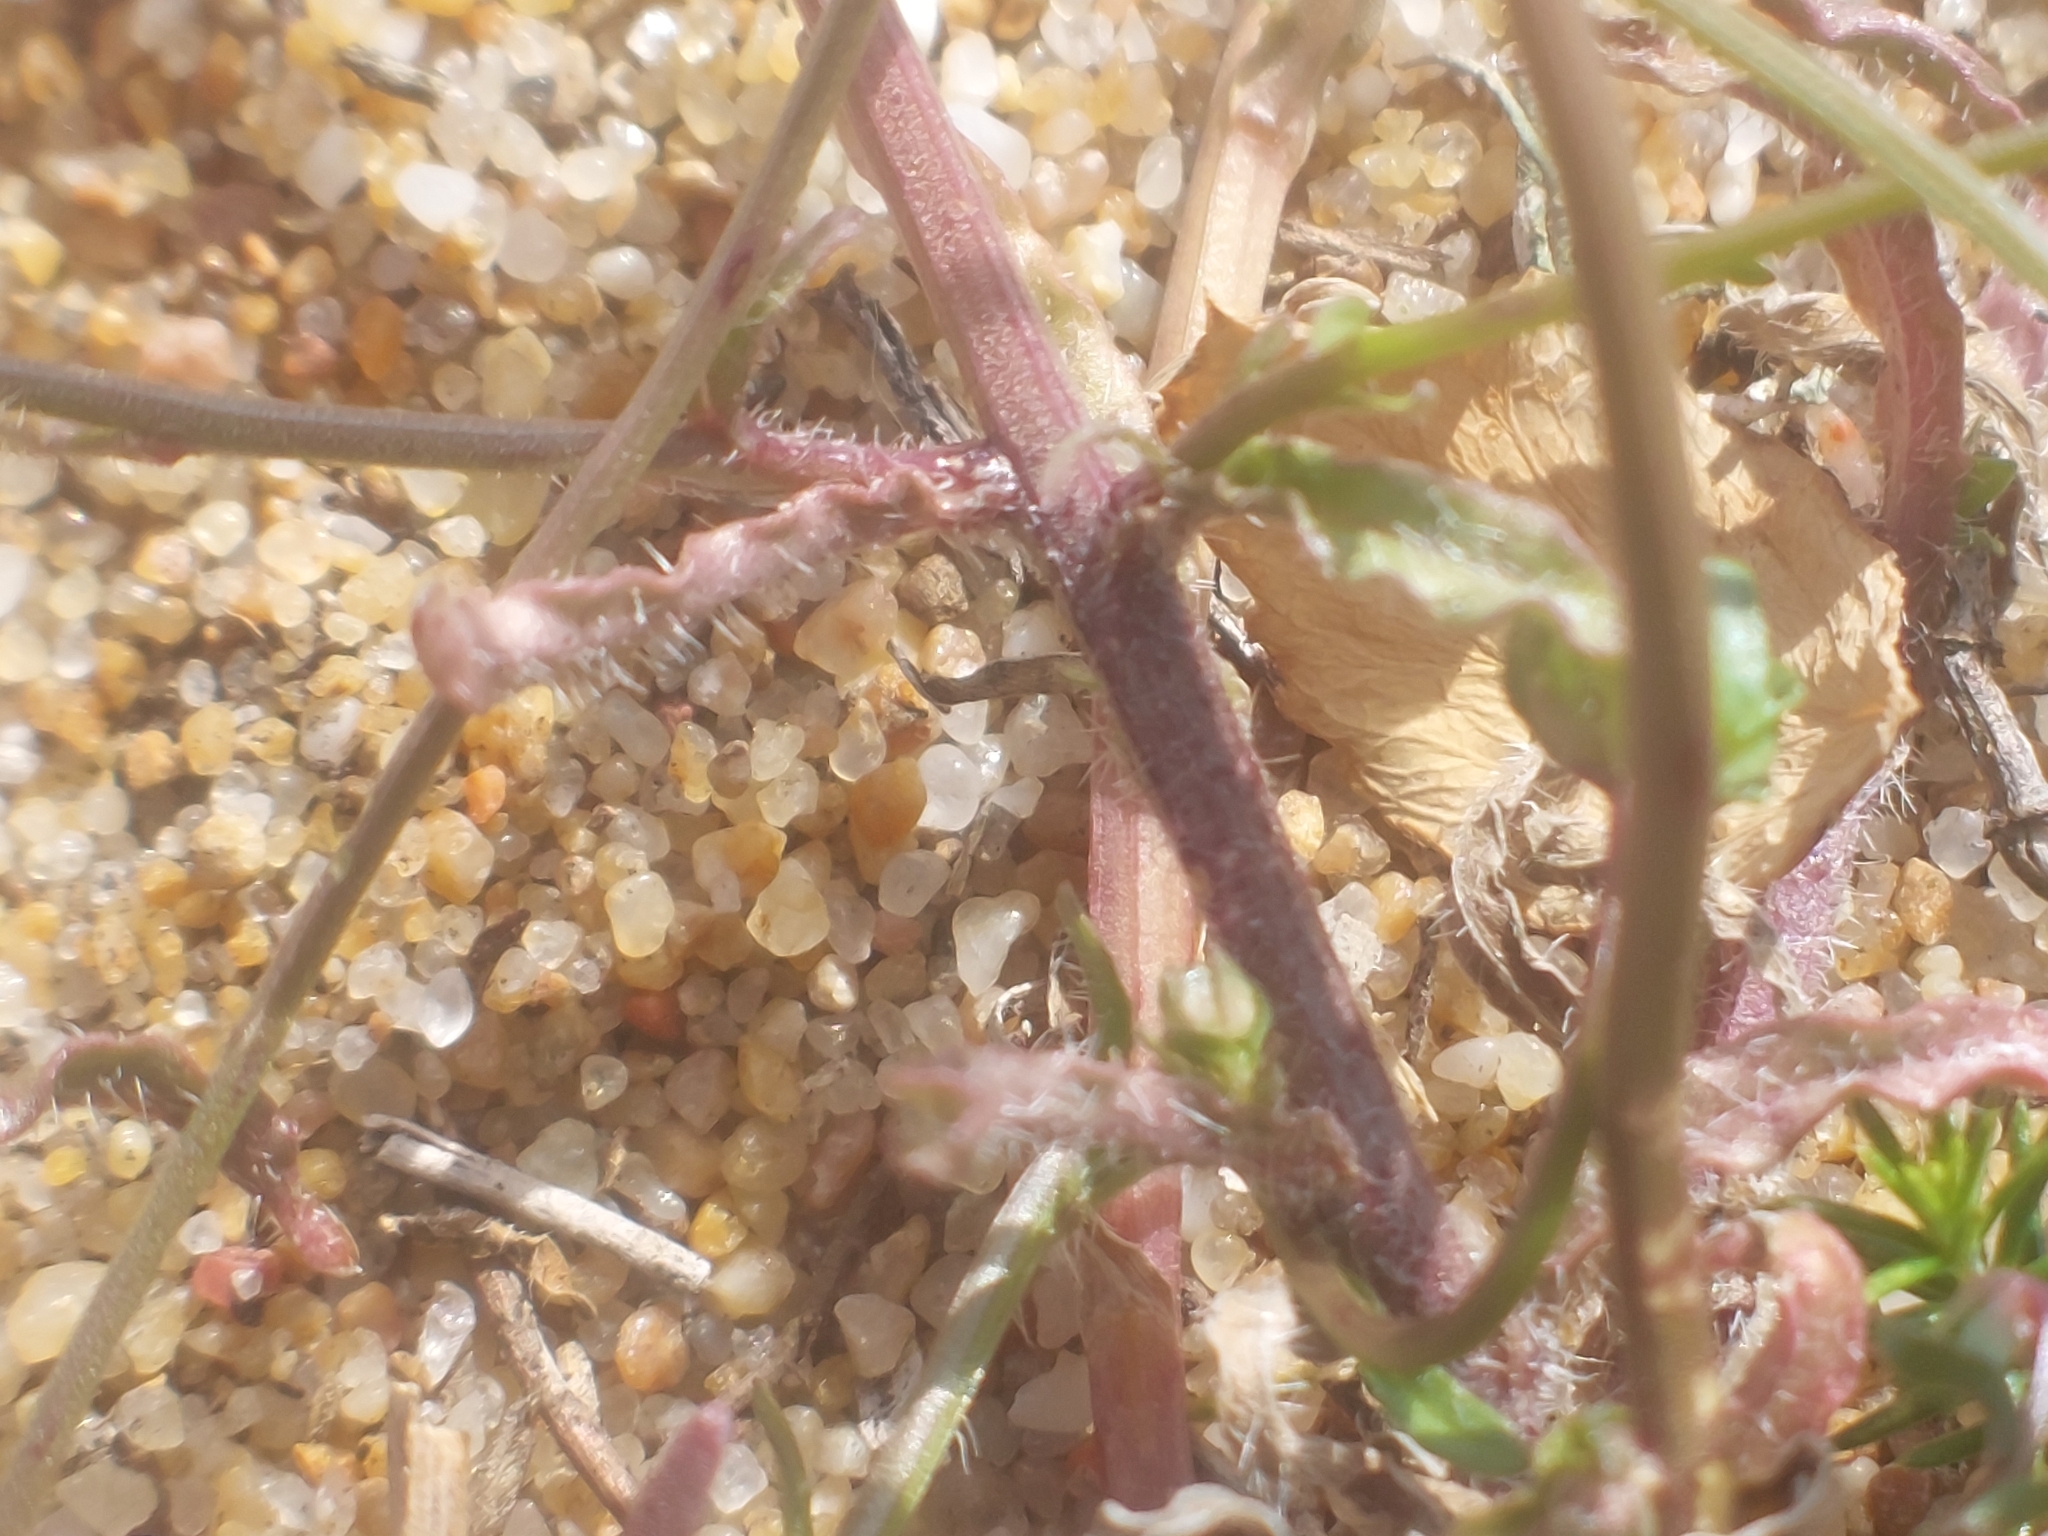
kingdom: Plantae
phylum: Tracheophyta
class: Magnoliopsida
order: Asterales
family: Campanulaceae
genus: Jasione
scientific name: Jasione montana
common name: Sheep's-bit
